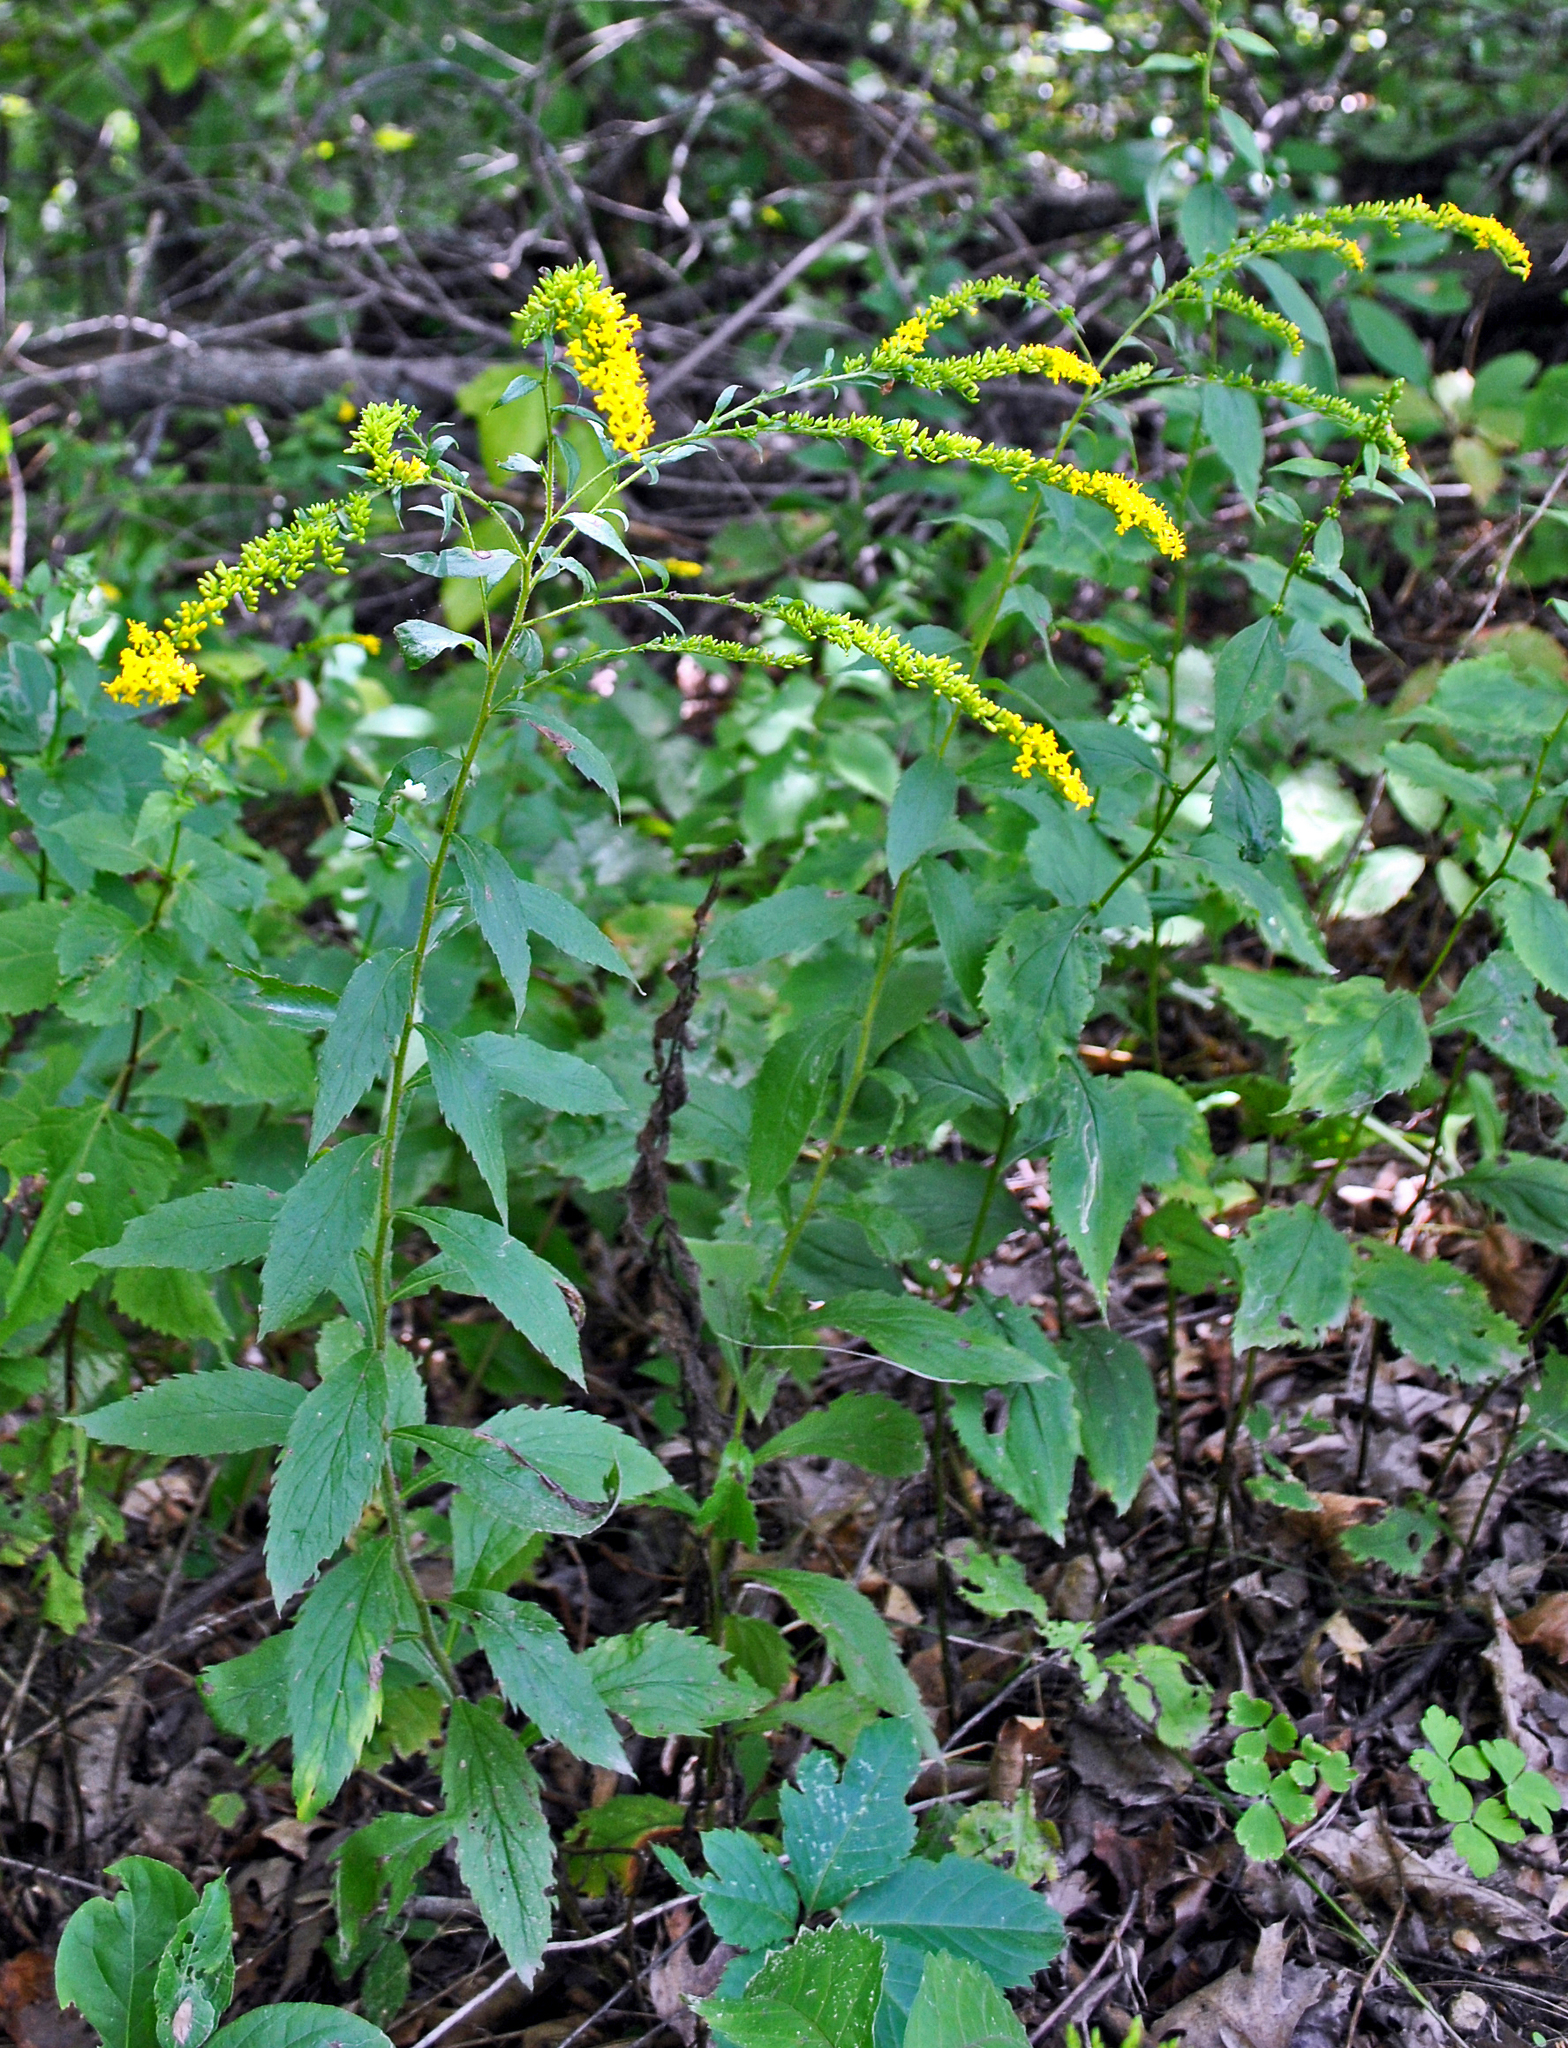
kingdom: Plantae
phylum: Tracheophyta
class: Magnoliopsida
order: Asterales
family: Asteraceae
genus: Solidago
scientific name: Solidago ulmifolia
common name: Elm-leaf goldenrod
